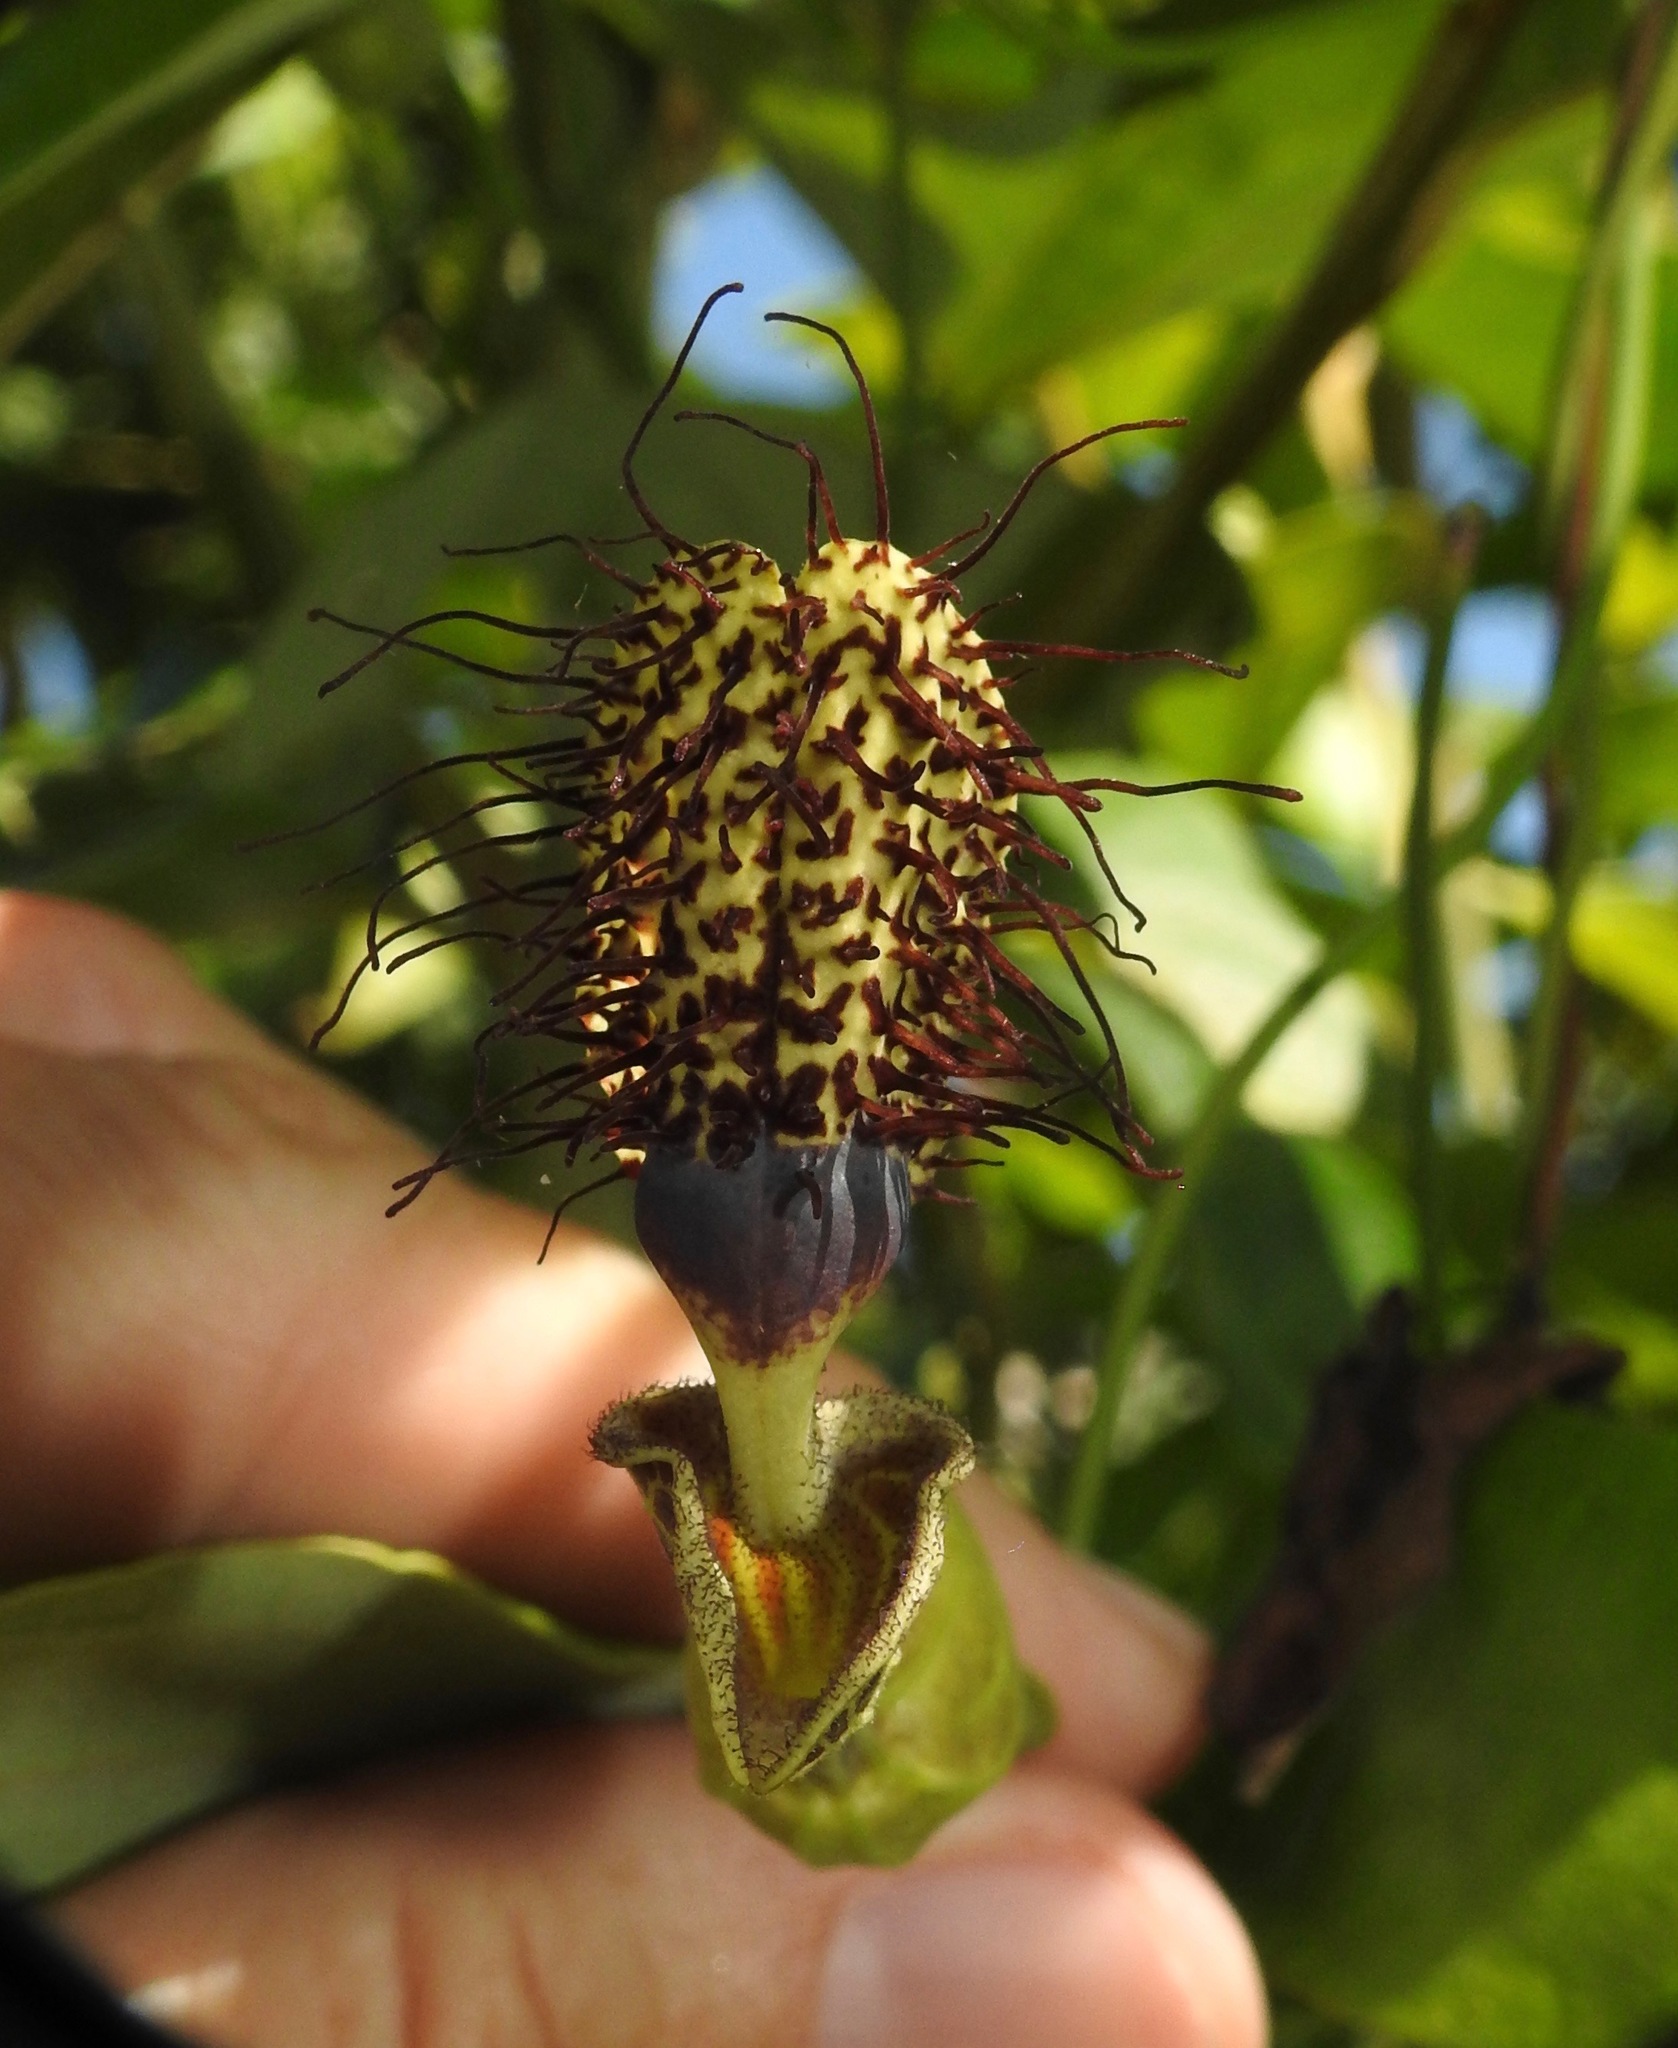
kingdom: Plantae
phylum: Tracheophyta
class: Magnoliopsida
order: Piperales
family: Aristolochiaceae
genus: Aristolochia
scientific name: Aristolochia surinamensis
